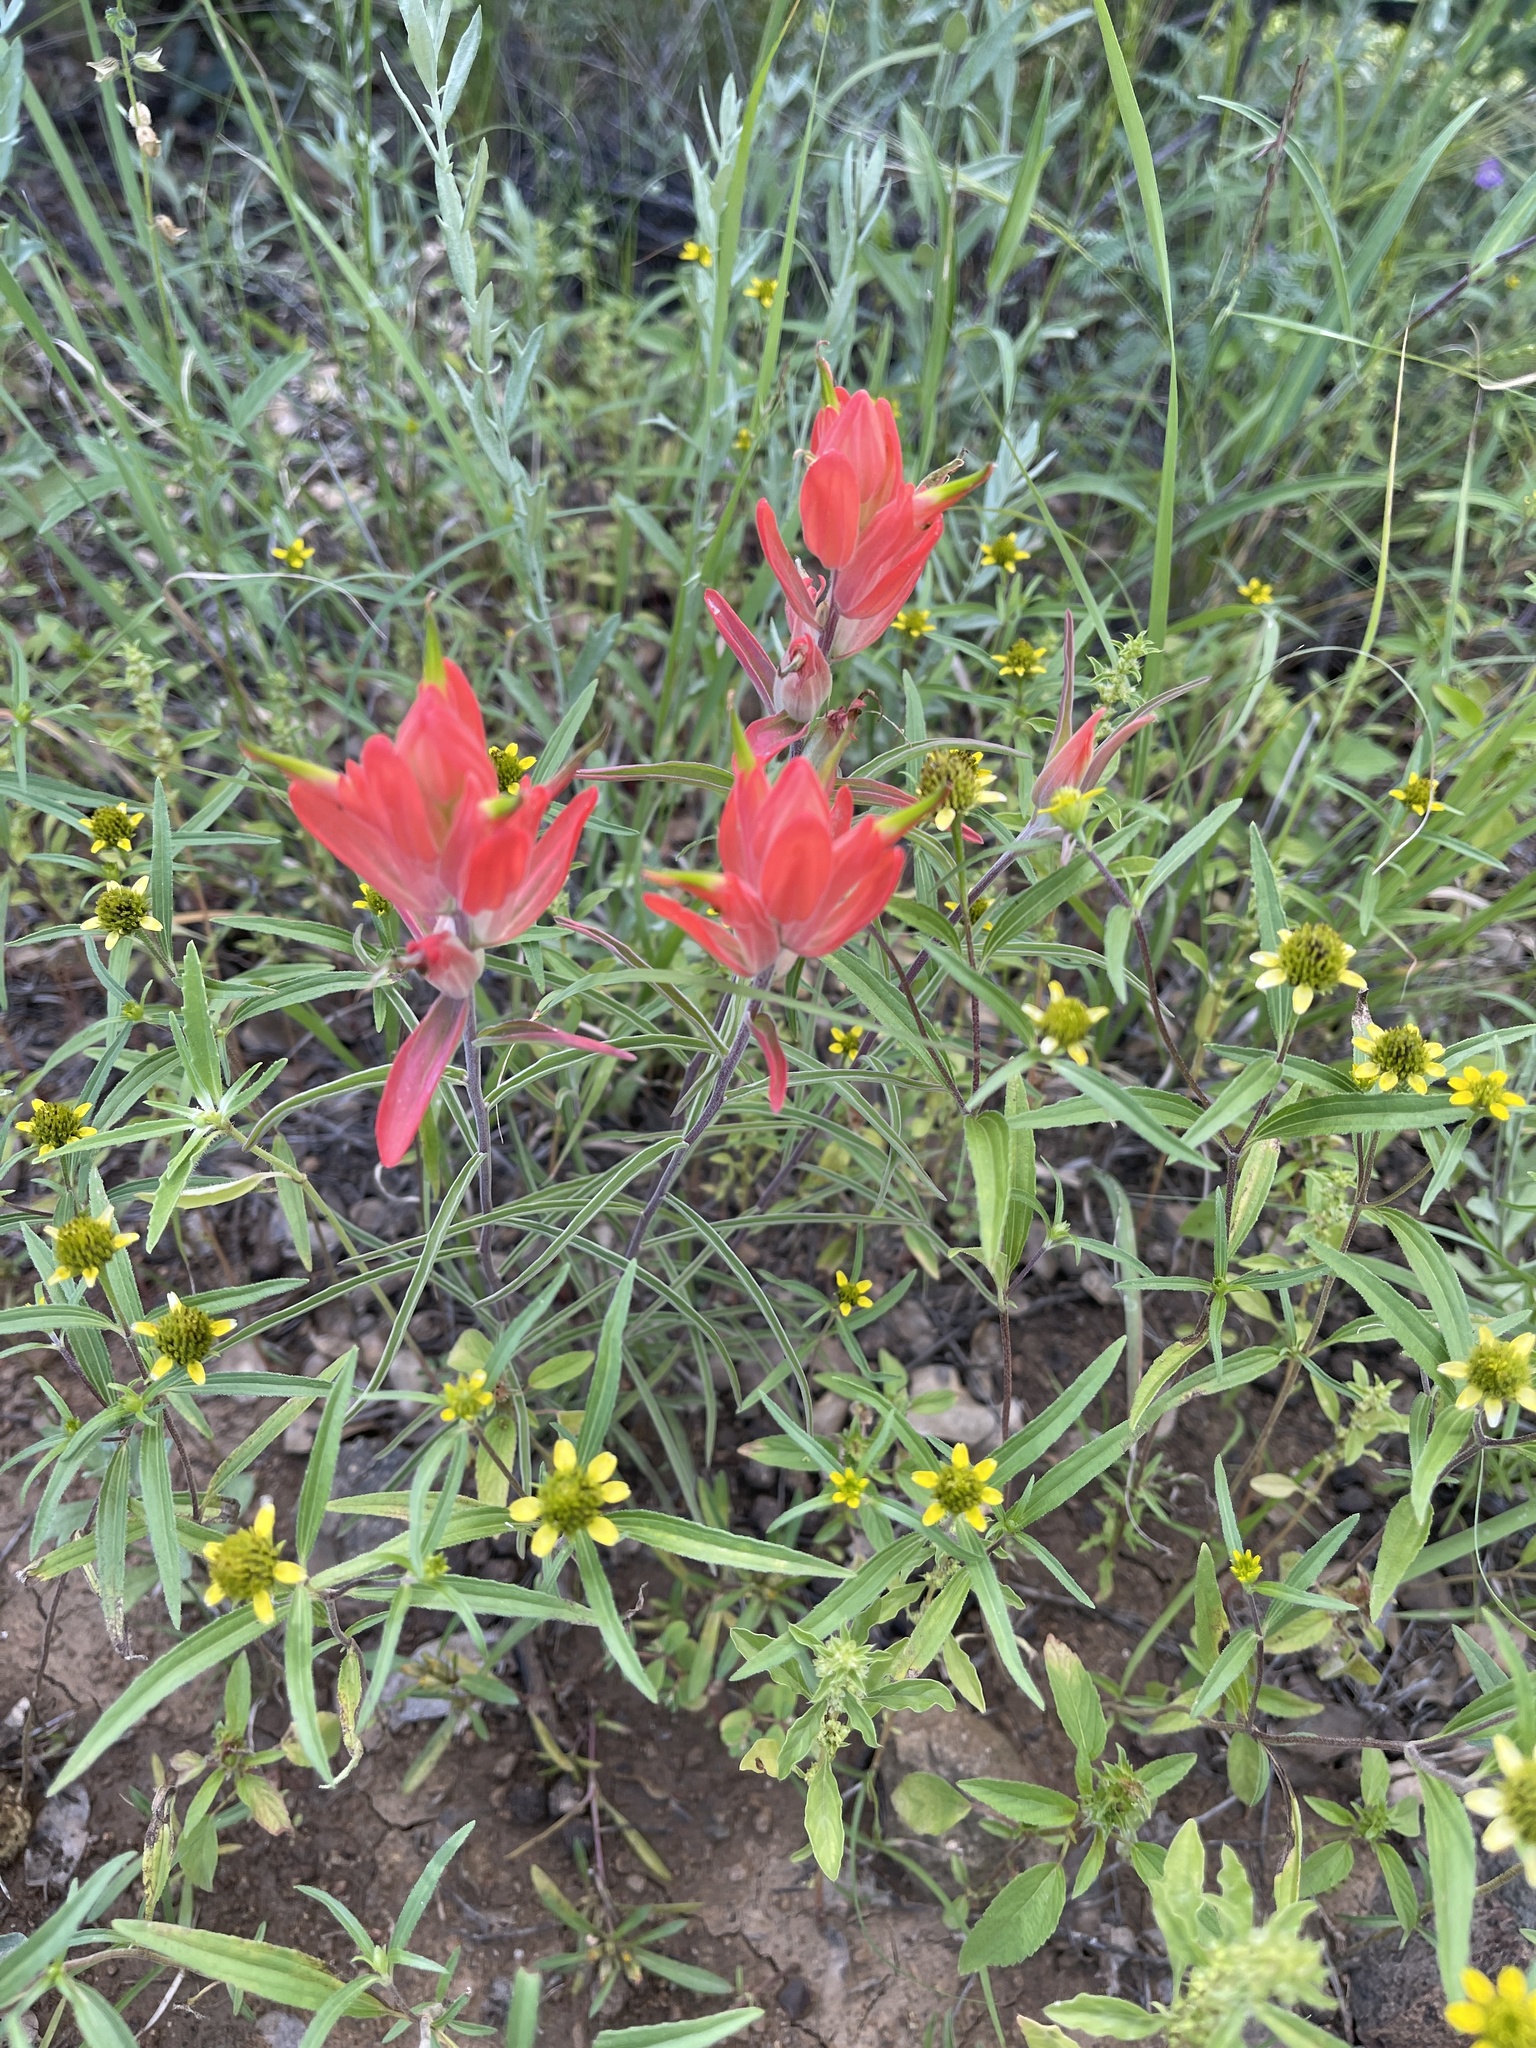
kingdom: Plantae
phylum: Tracheophyta
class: Magnoliopsida
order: Lamiales
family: Orobanchaceae
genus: Castilleja
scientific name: Castilleja integra
